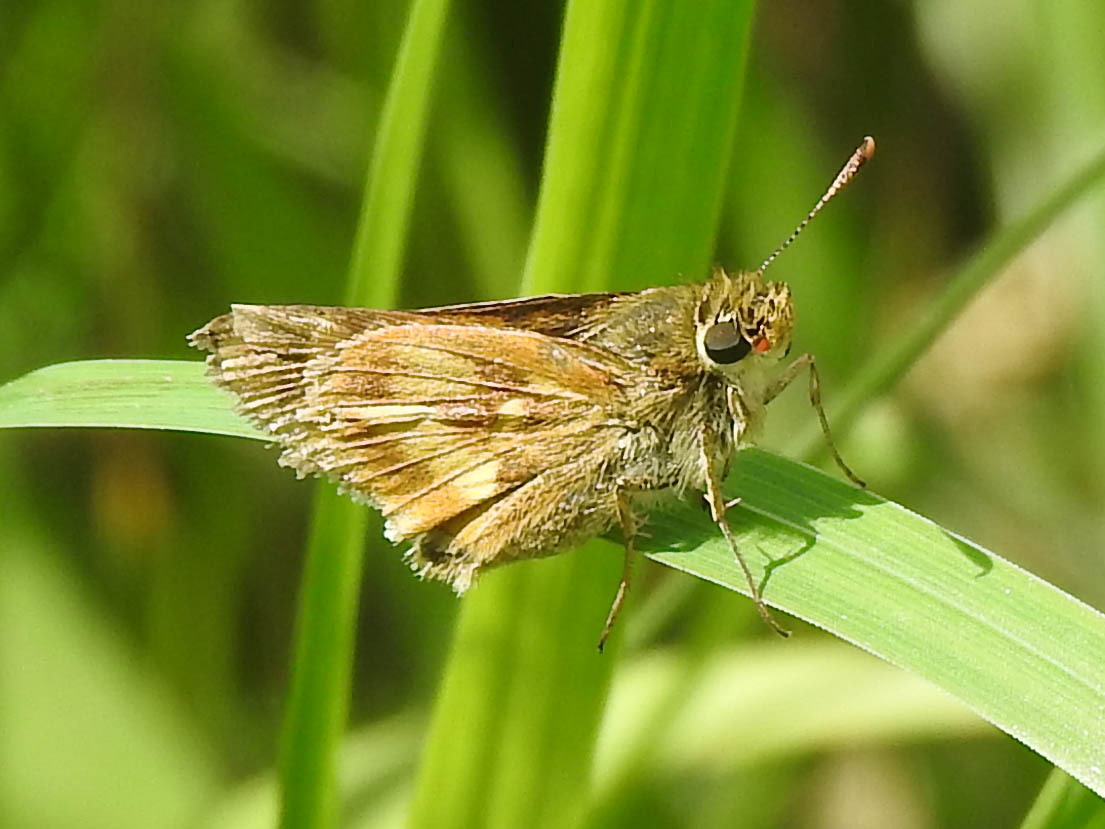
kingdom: Animalia
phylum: Arthropoda
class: Insecta
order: Lepidoptera
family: Hesperiidae
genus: Polites
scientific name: Polites mystic
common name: Long dash
